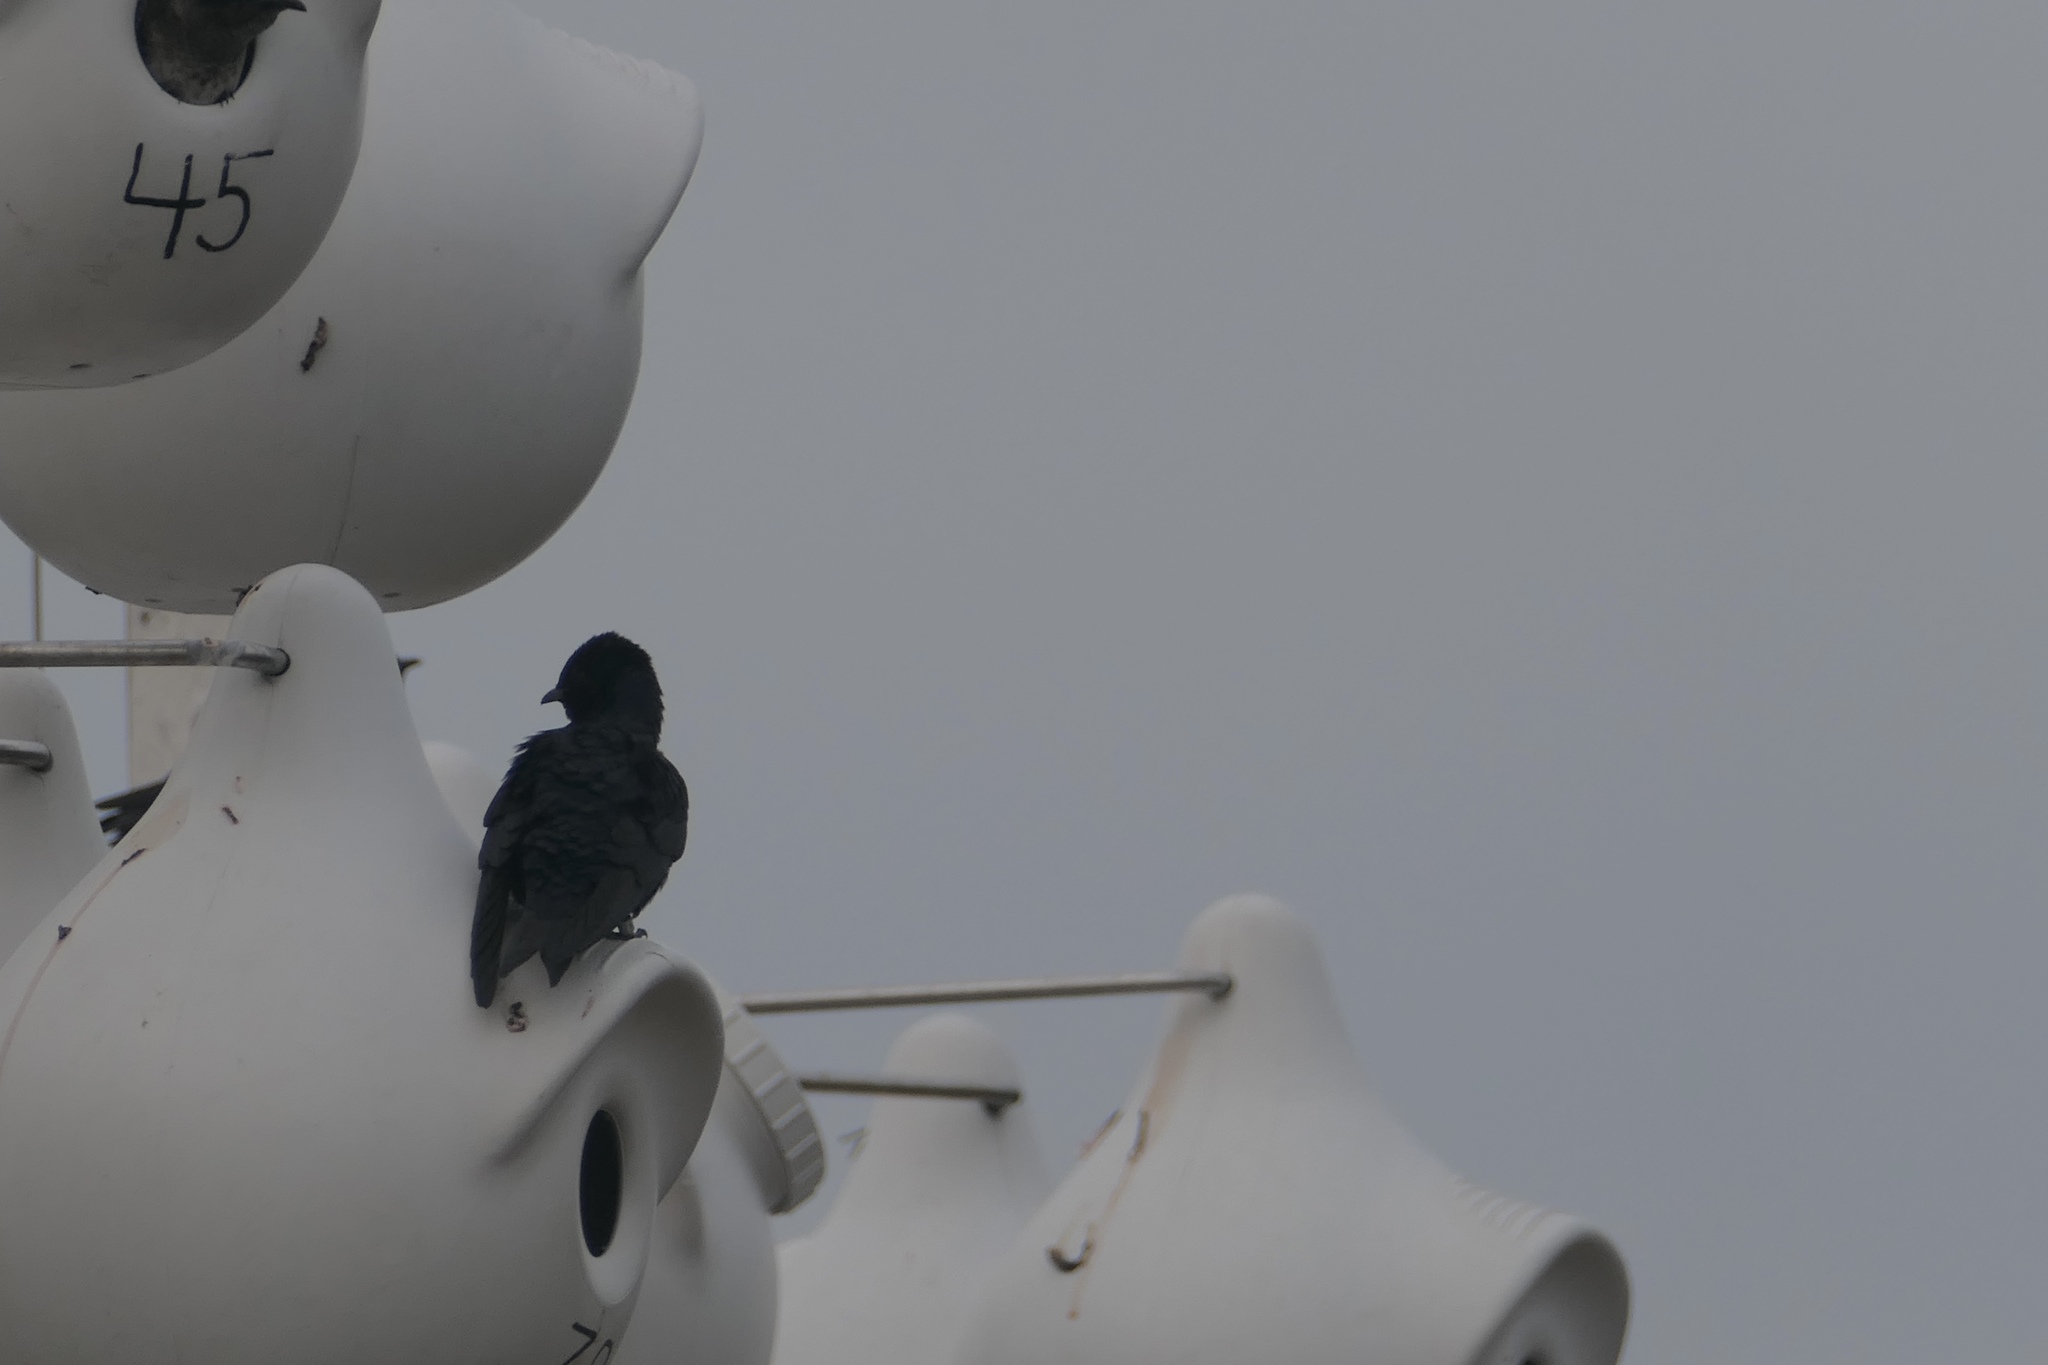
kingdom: Animalia
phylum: Chordata
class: Aves
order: Passeriformes
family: Hirundinidae
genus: Progne
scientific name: Progne subis
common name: Purple martin
